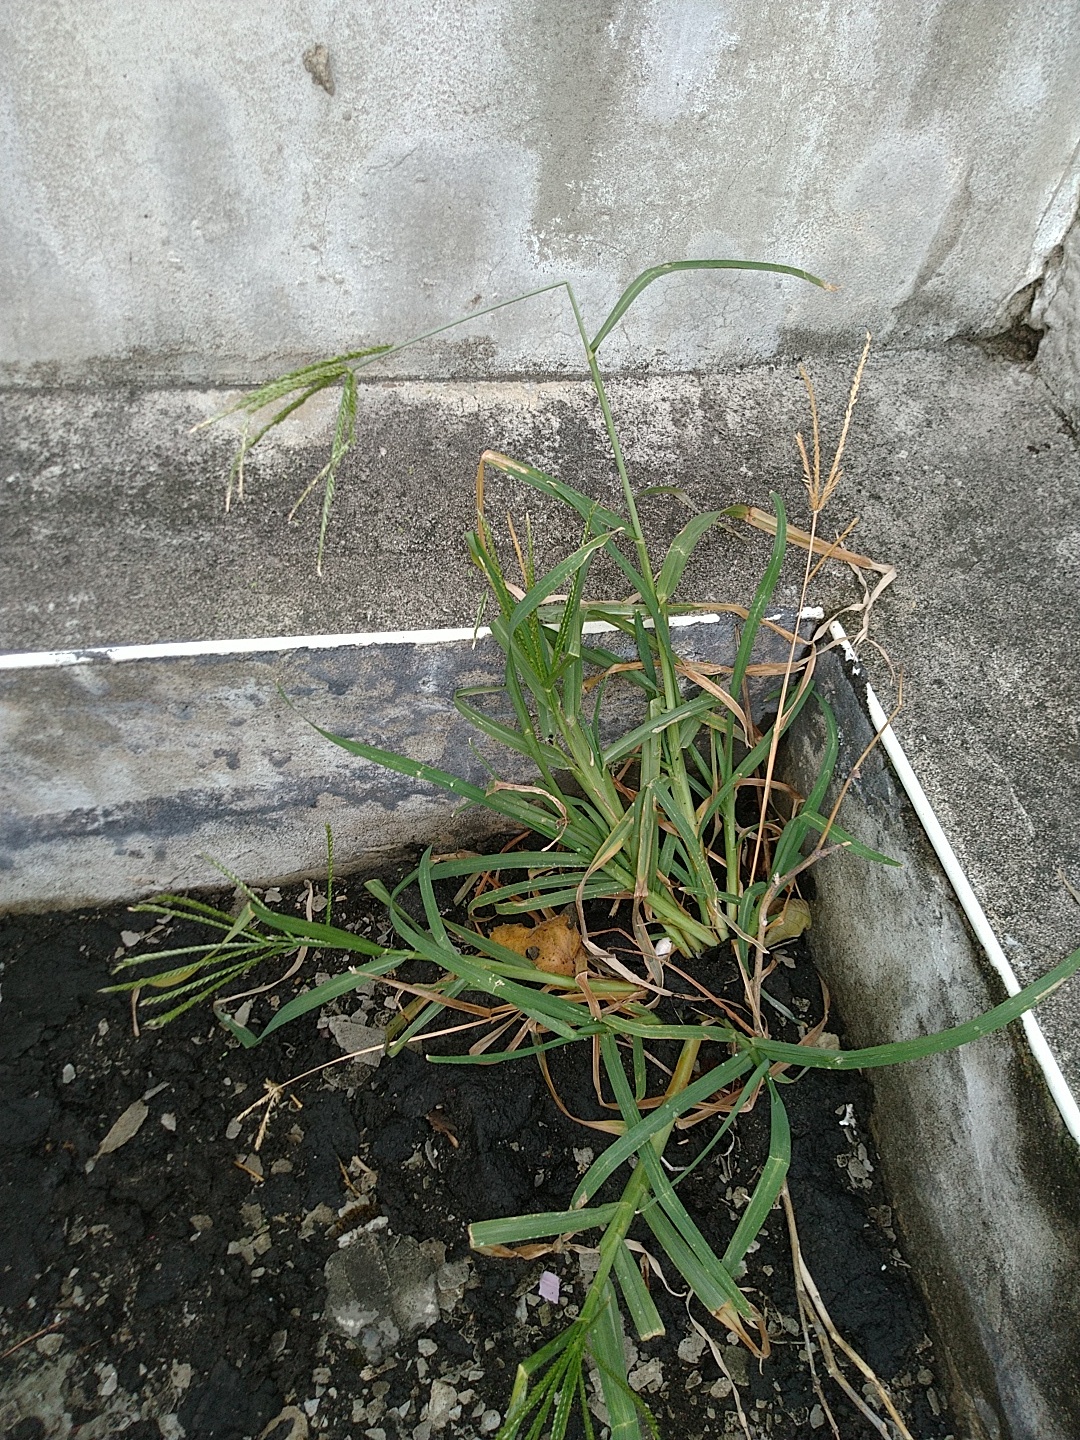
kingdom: Plantae
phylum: Tracheophyta
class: Liliopsida
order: Poales
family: Poaceae
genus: Eleusine
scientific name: Eleusine indica
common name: Yard-grass
